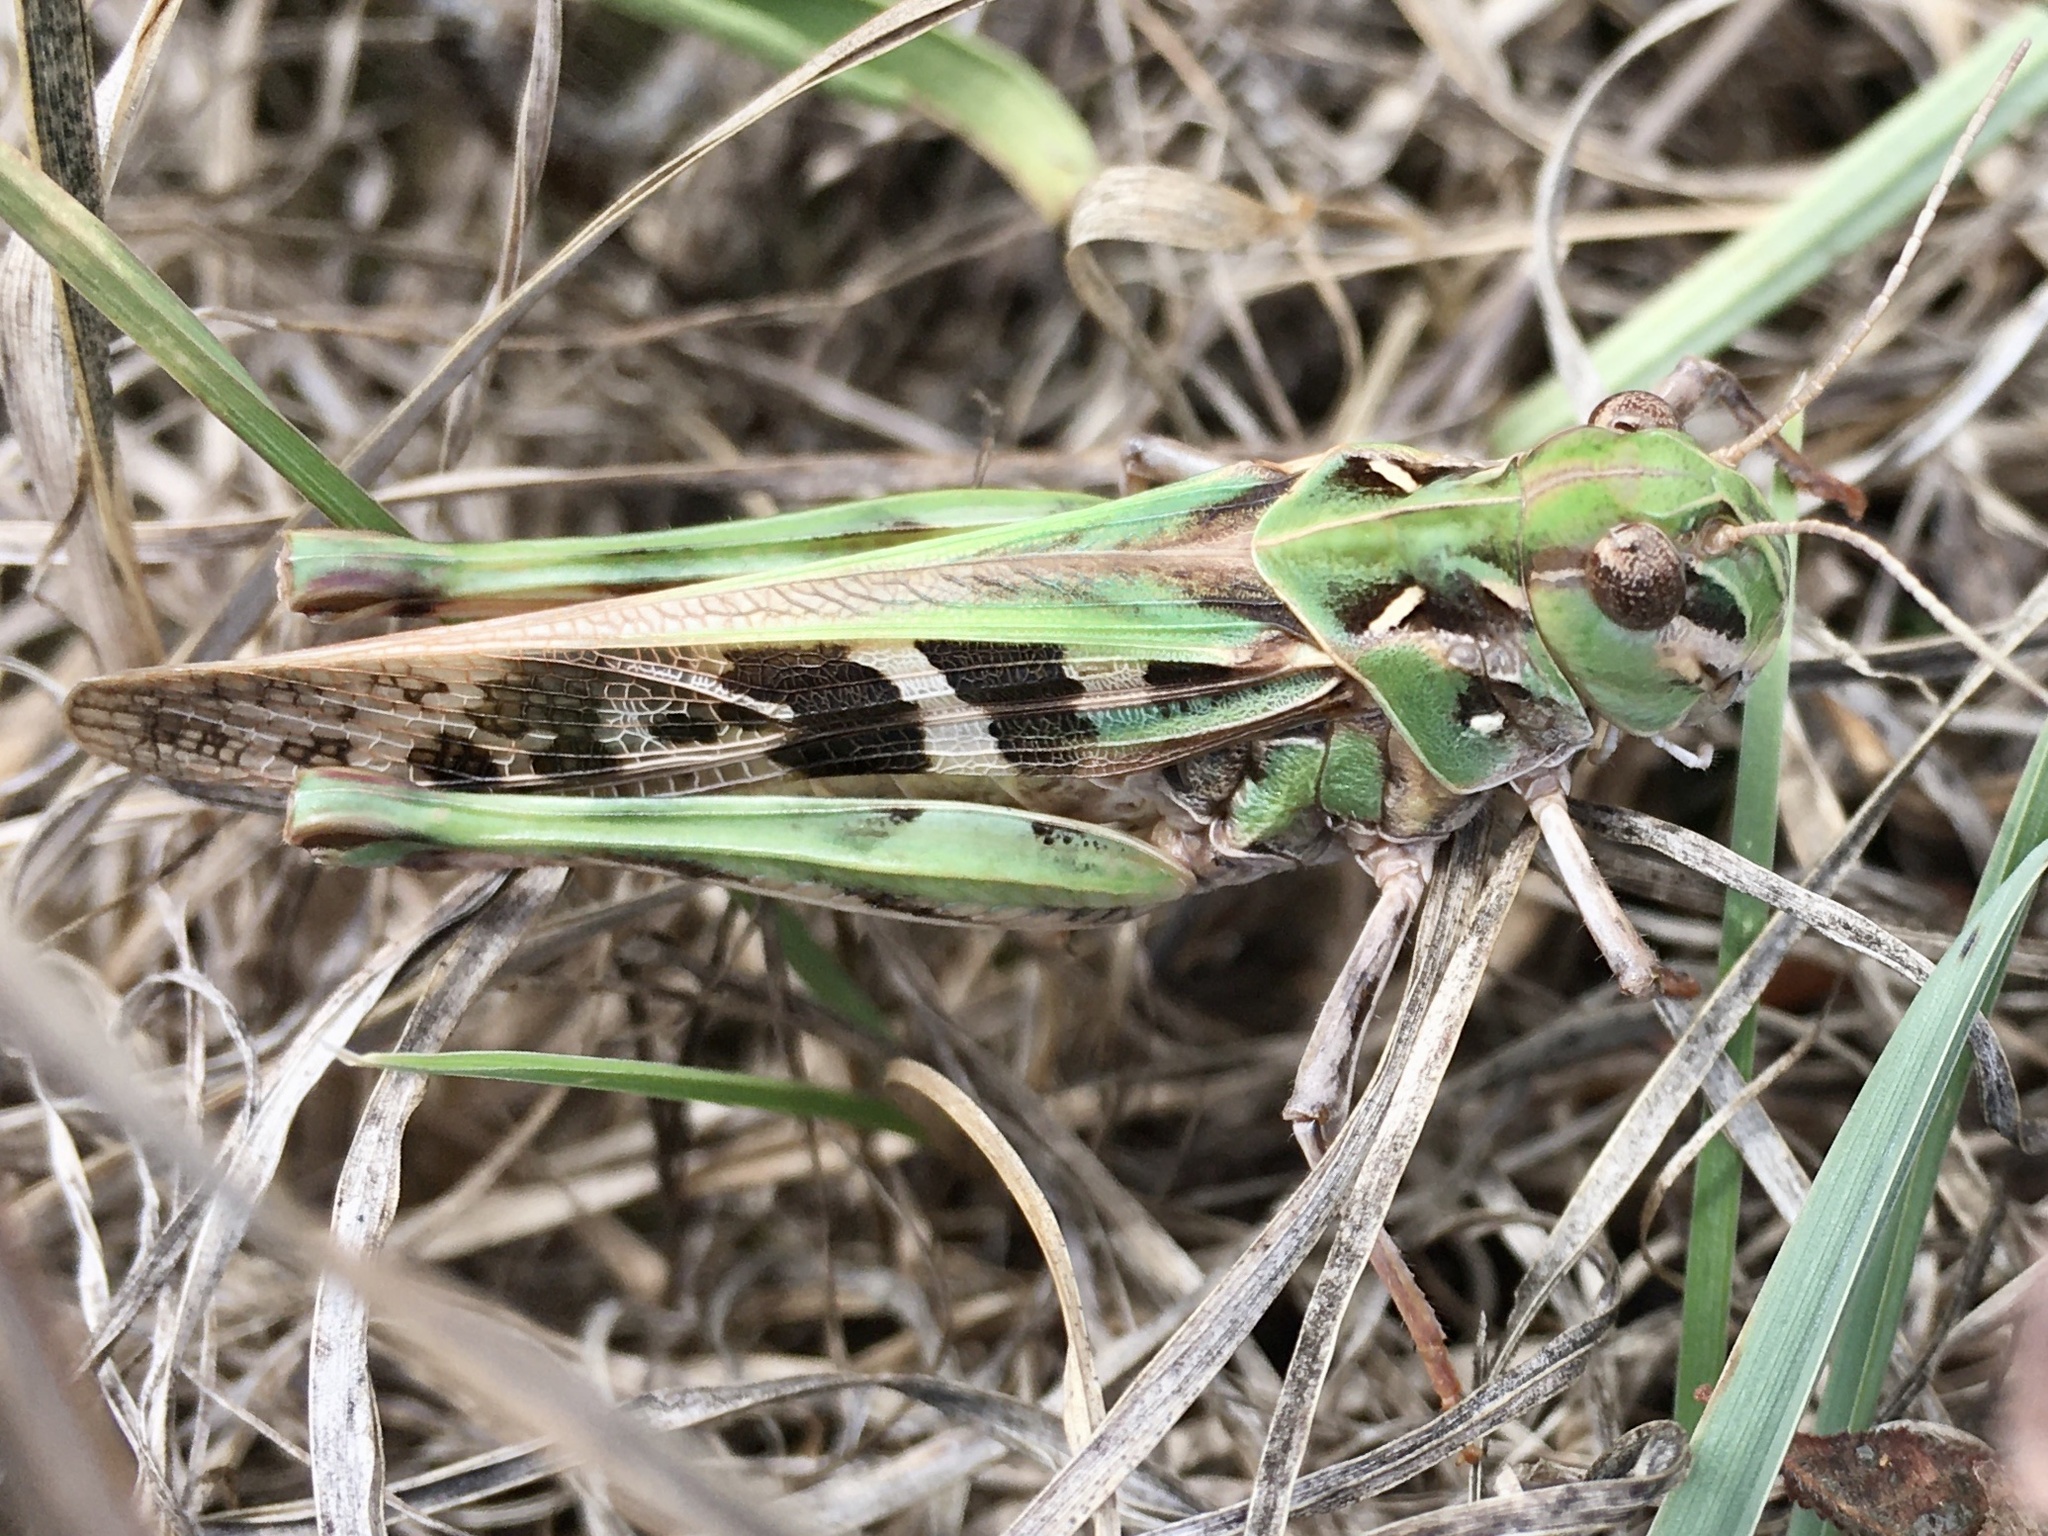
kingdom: Animalia
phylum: Arthropoda
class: Insecta
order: Orthoptera
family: Acrididae
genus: Oedaleus
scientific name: Oedaleus decorus
